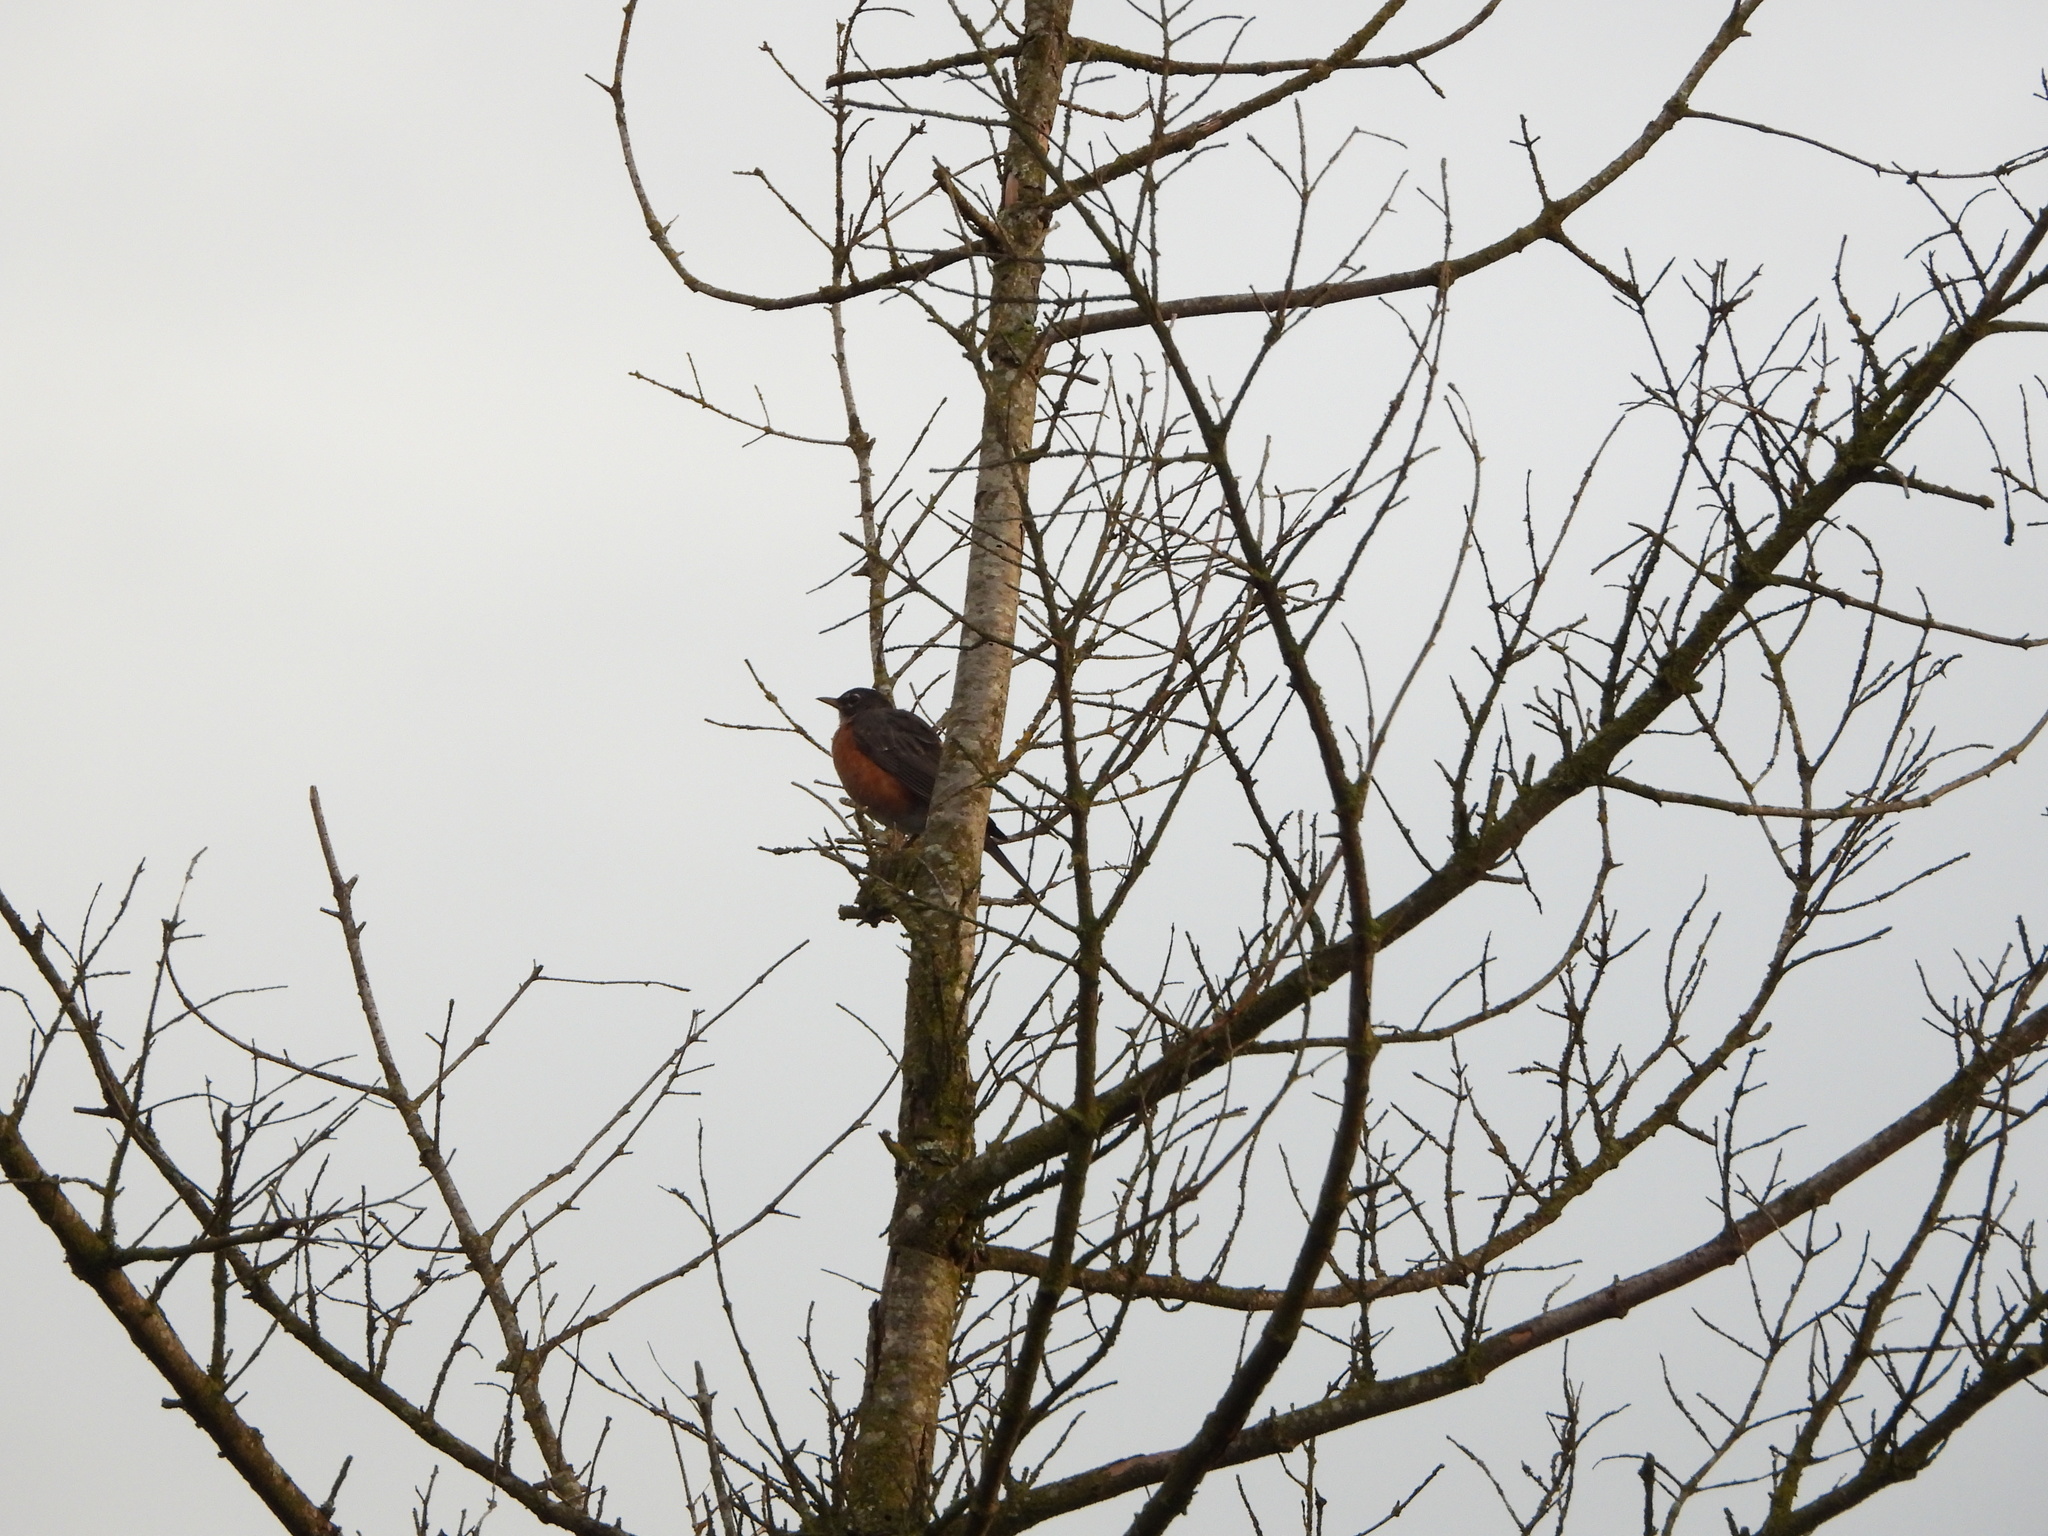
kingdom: Animalia
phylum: Chordata
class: Aves
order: Passeriformes
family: Turdidae
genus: Turdus
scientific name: Turdus migratorius
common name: American robin
